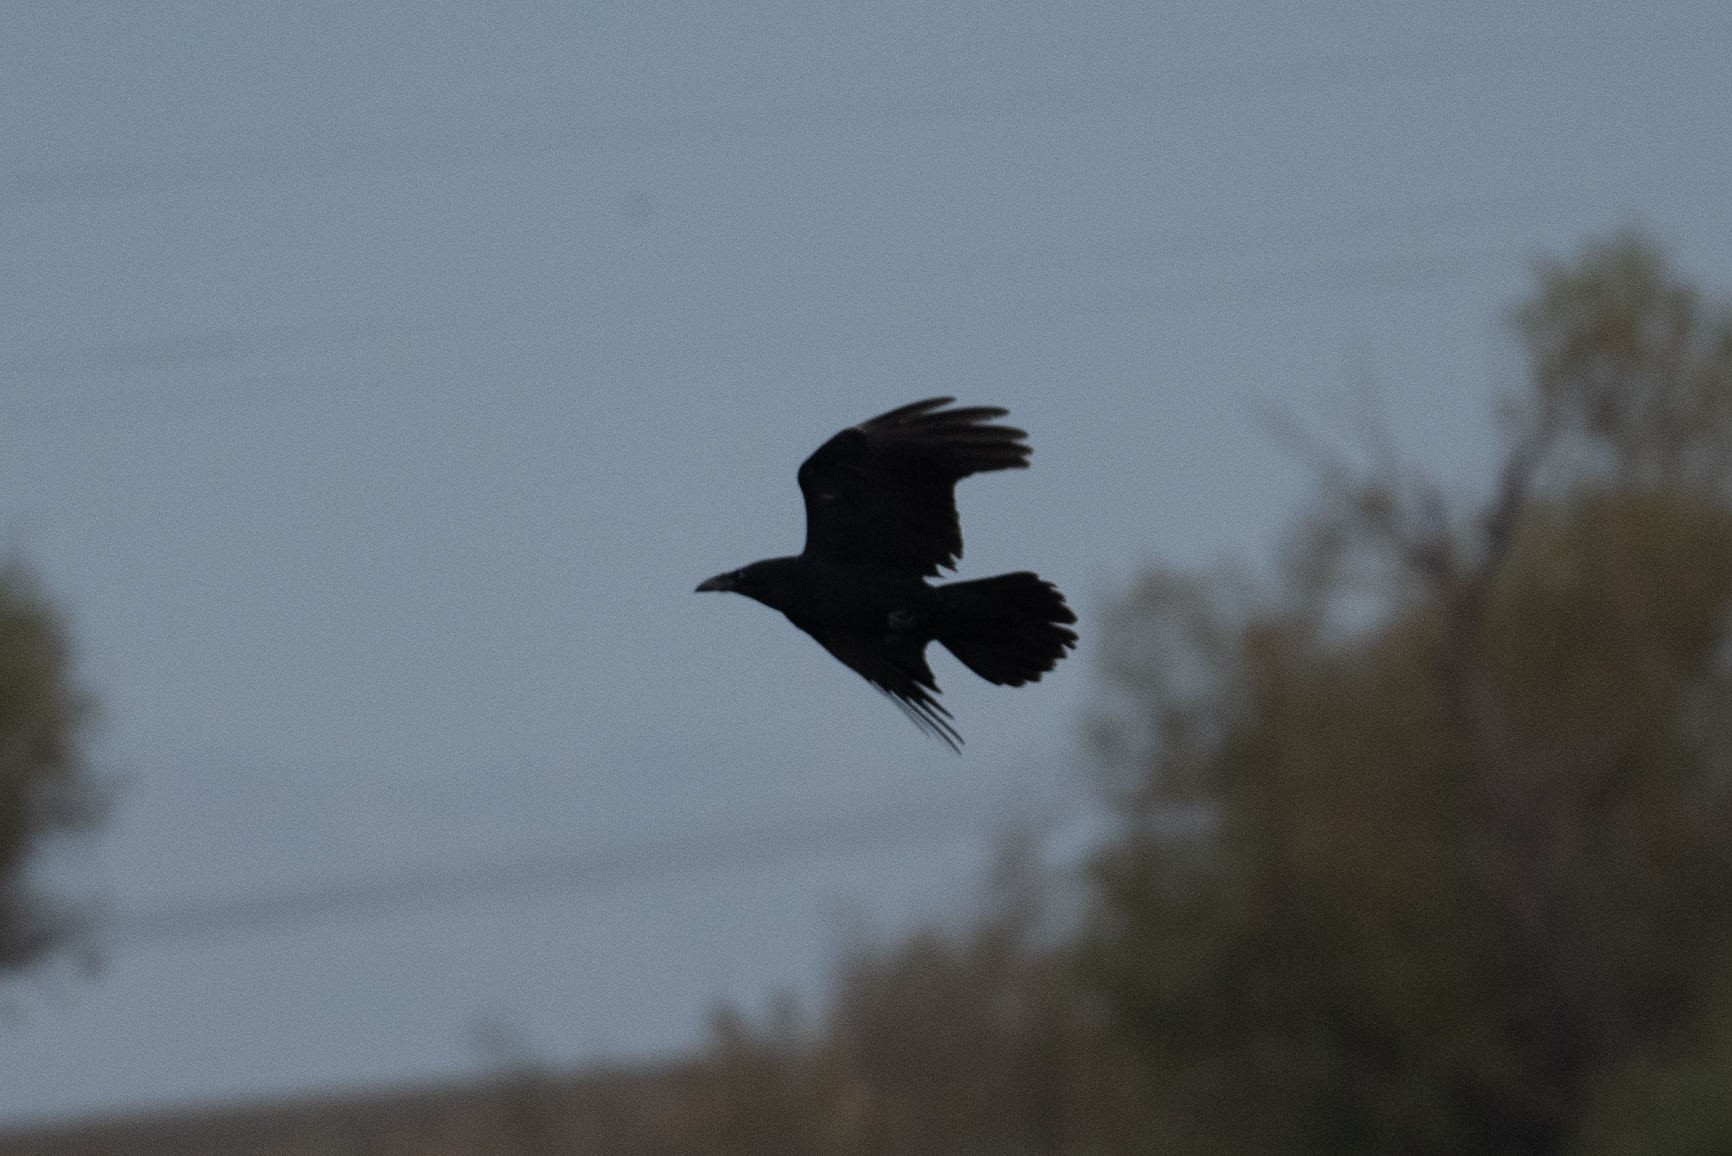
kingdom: Animalia
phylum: Chordata
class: Aves
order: Passeriformes
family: Corvidae
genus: Corvus
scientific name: Corvus corax
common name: Common raven
